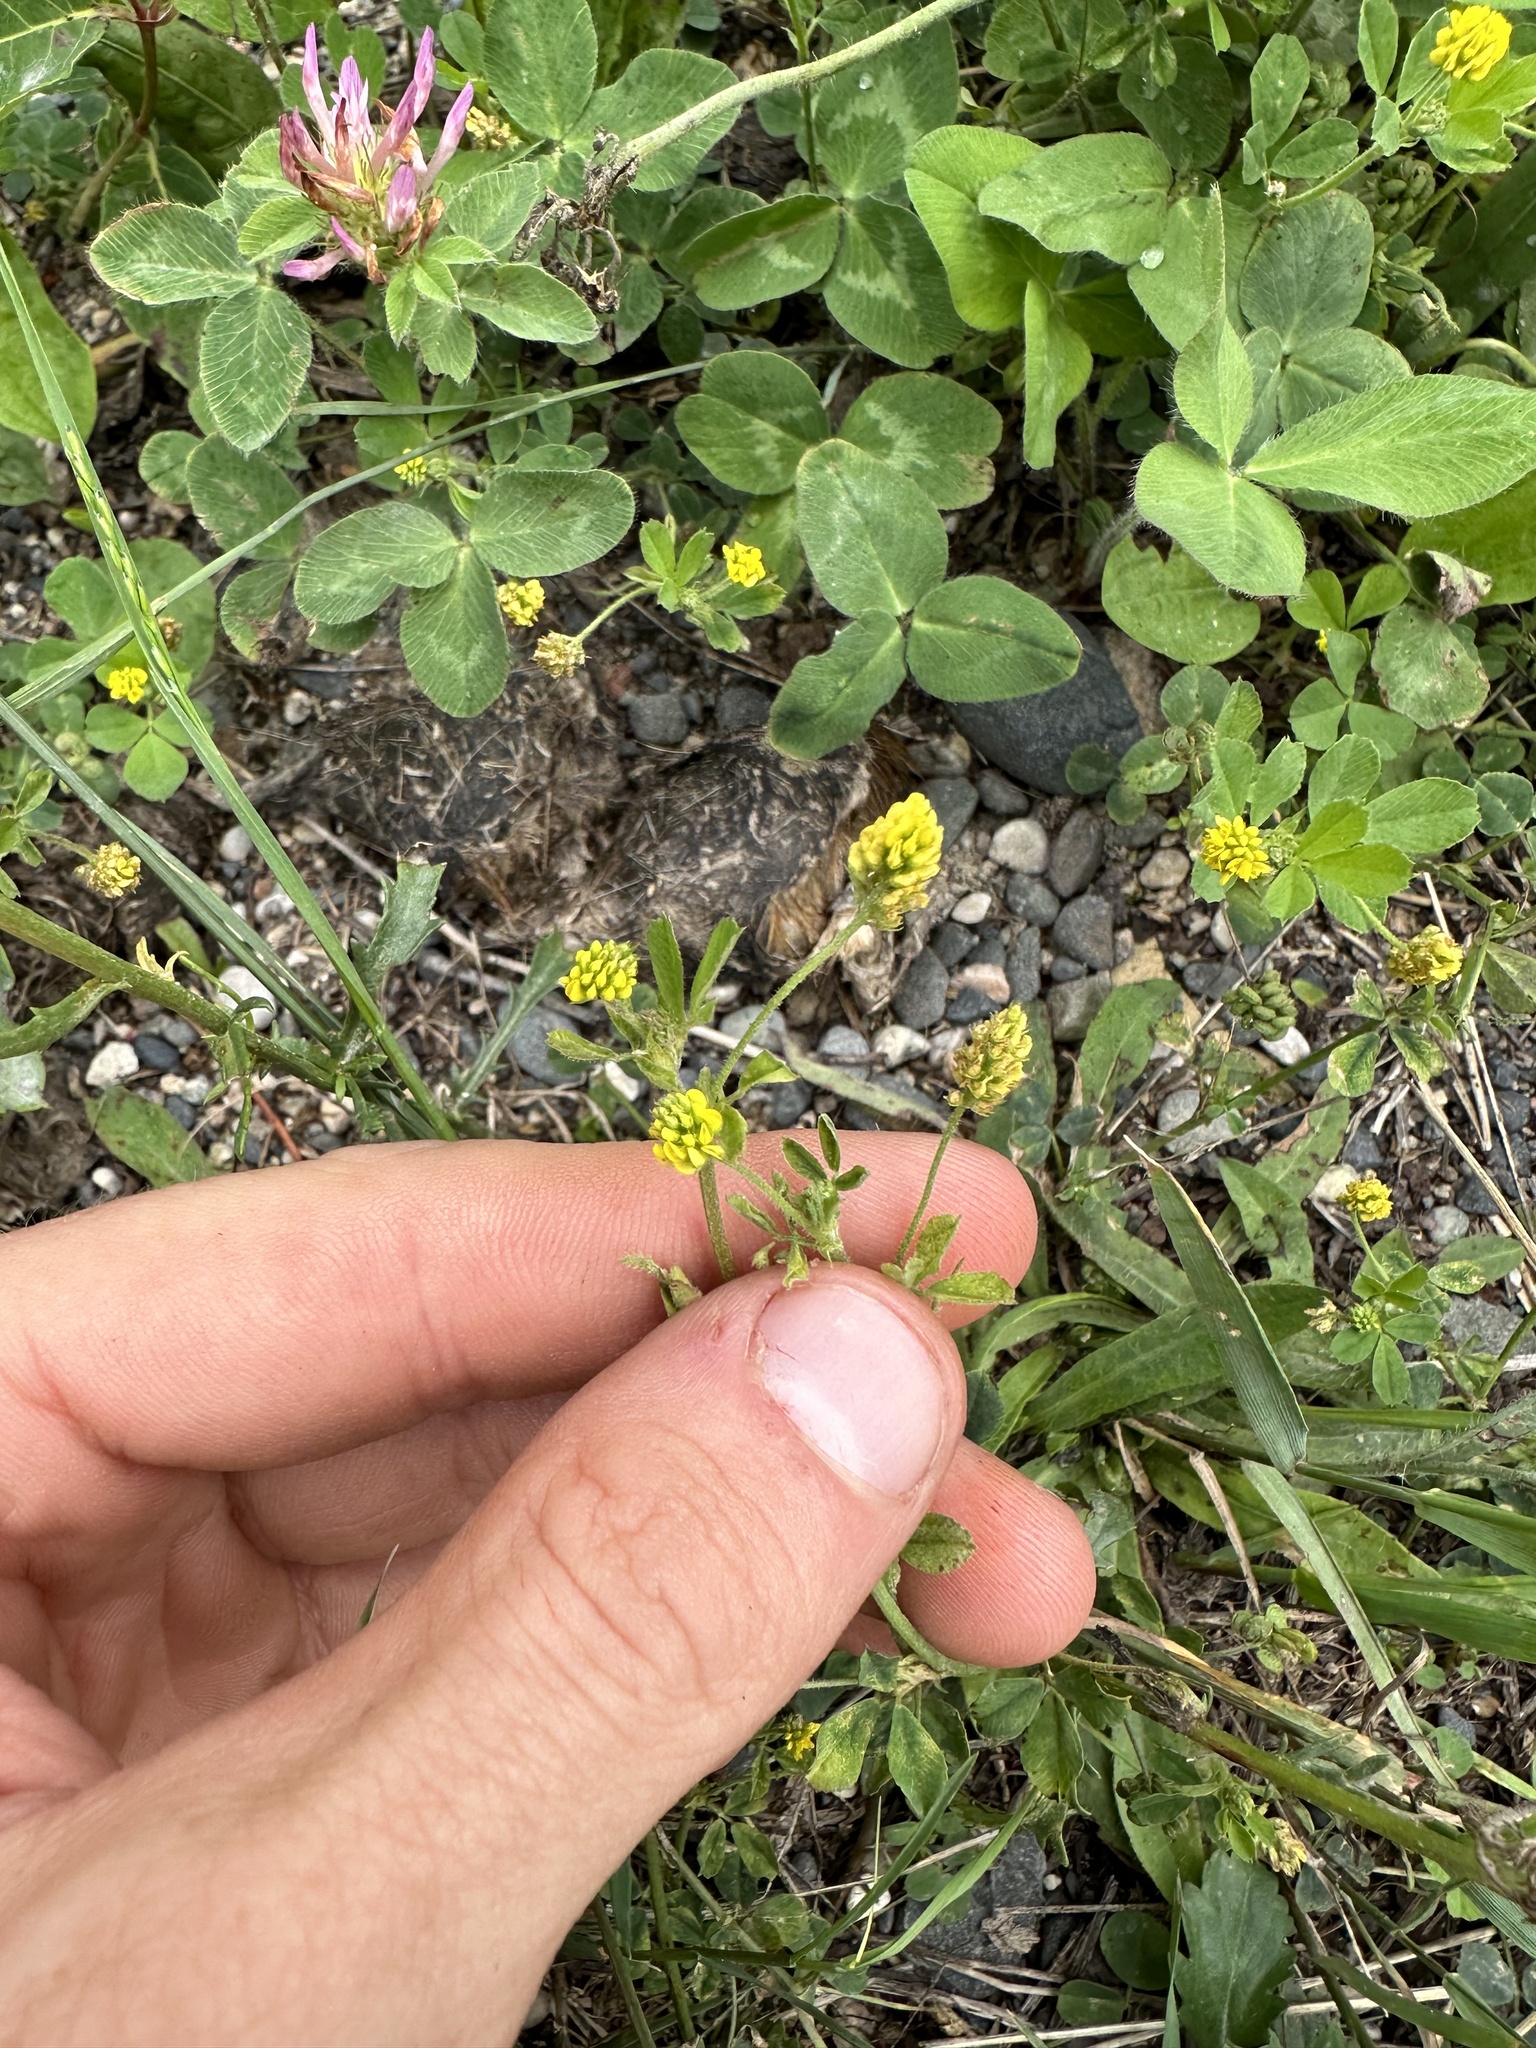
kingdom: Plantae
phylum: Tracheophyta
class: Magnoliopsida
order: Fabales
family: Fabaceae
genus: Medicago
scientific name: Medicago lupulina
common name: Black medick
